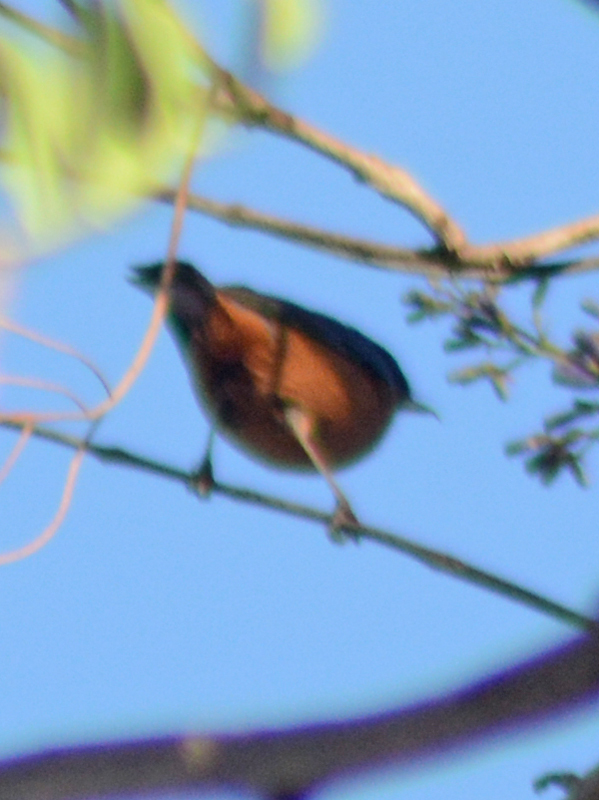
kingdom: Animalia
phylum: Chordata
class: Aves
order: Passeriformes
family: Thraupidae
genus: Diglossa
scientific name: Diglossa baritula
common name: Cinnamon-bellied flowerpiercer
